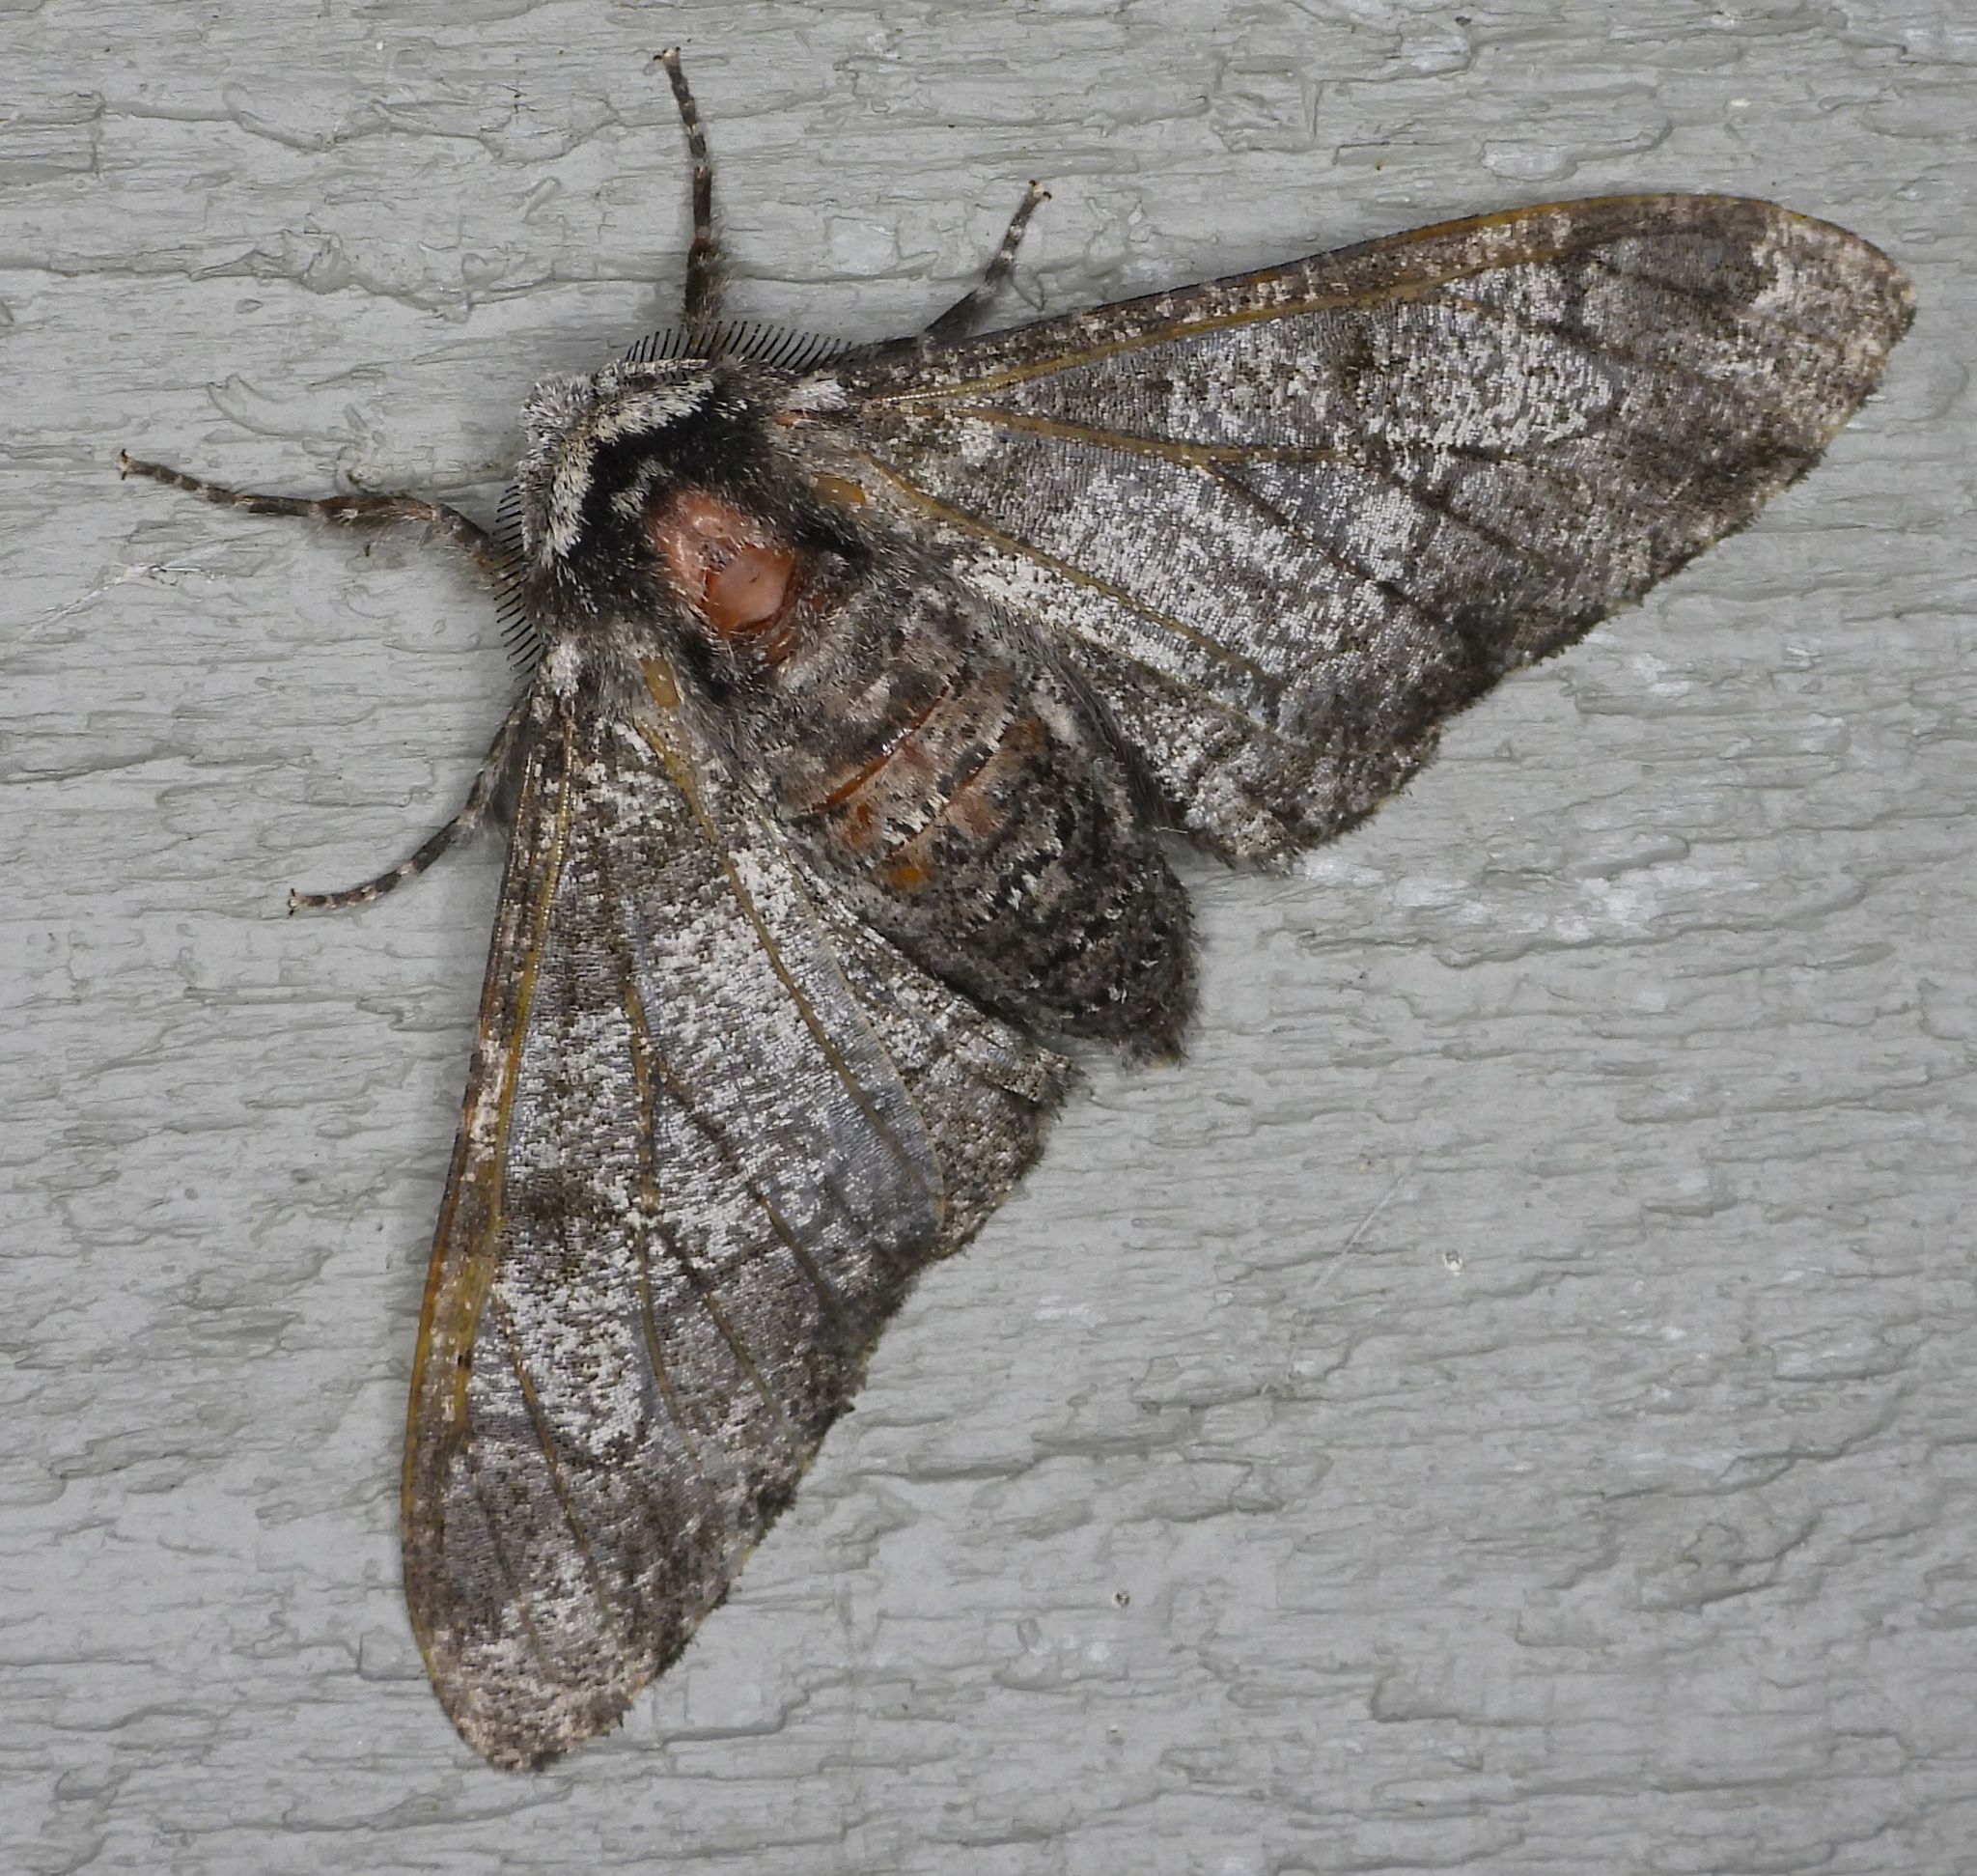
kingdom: Animalia
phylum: Arthropoda
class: Insecta
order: Lepidoptera
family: Geometridae
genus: Biston
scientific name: Biston betularia
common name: Peppered moth
